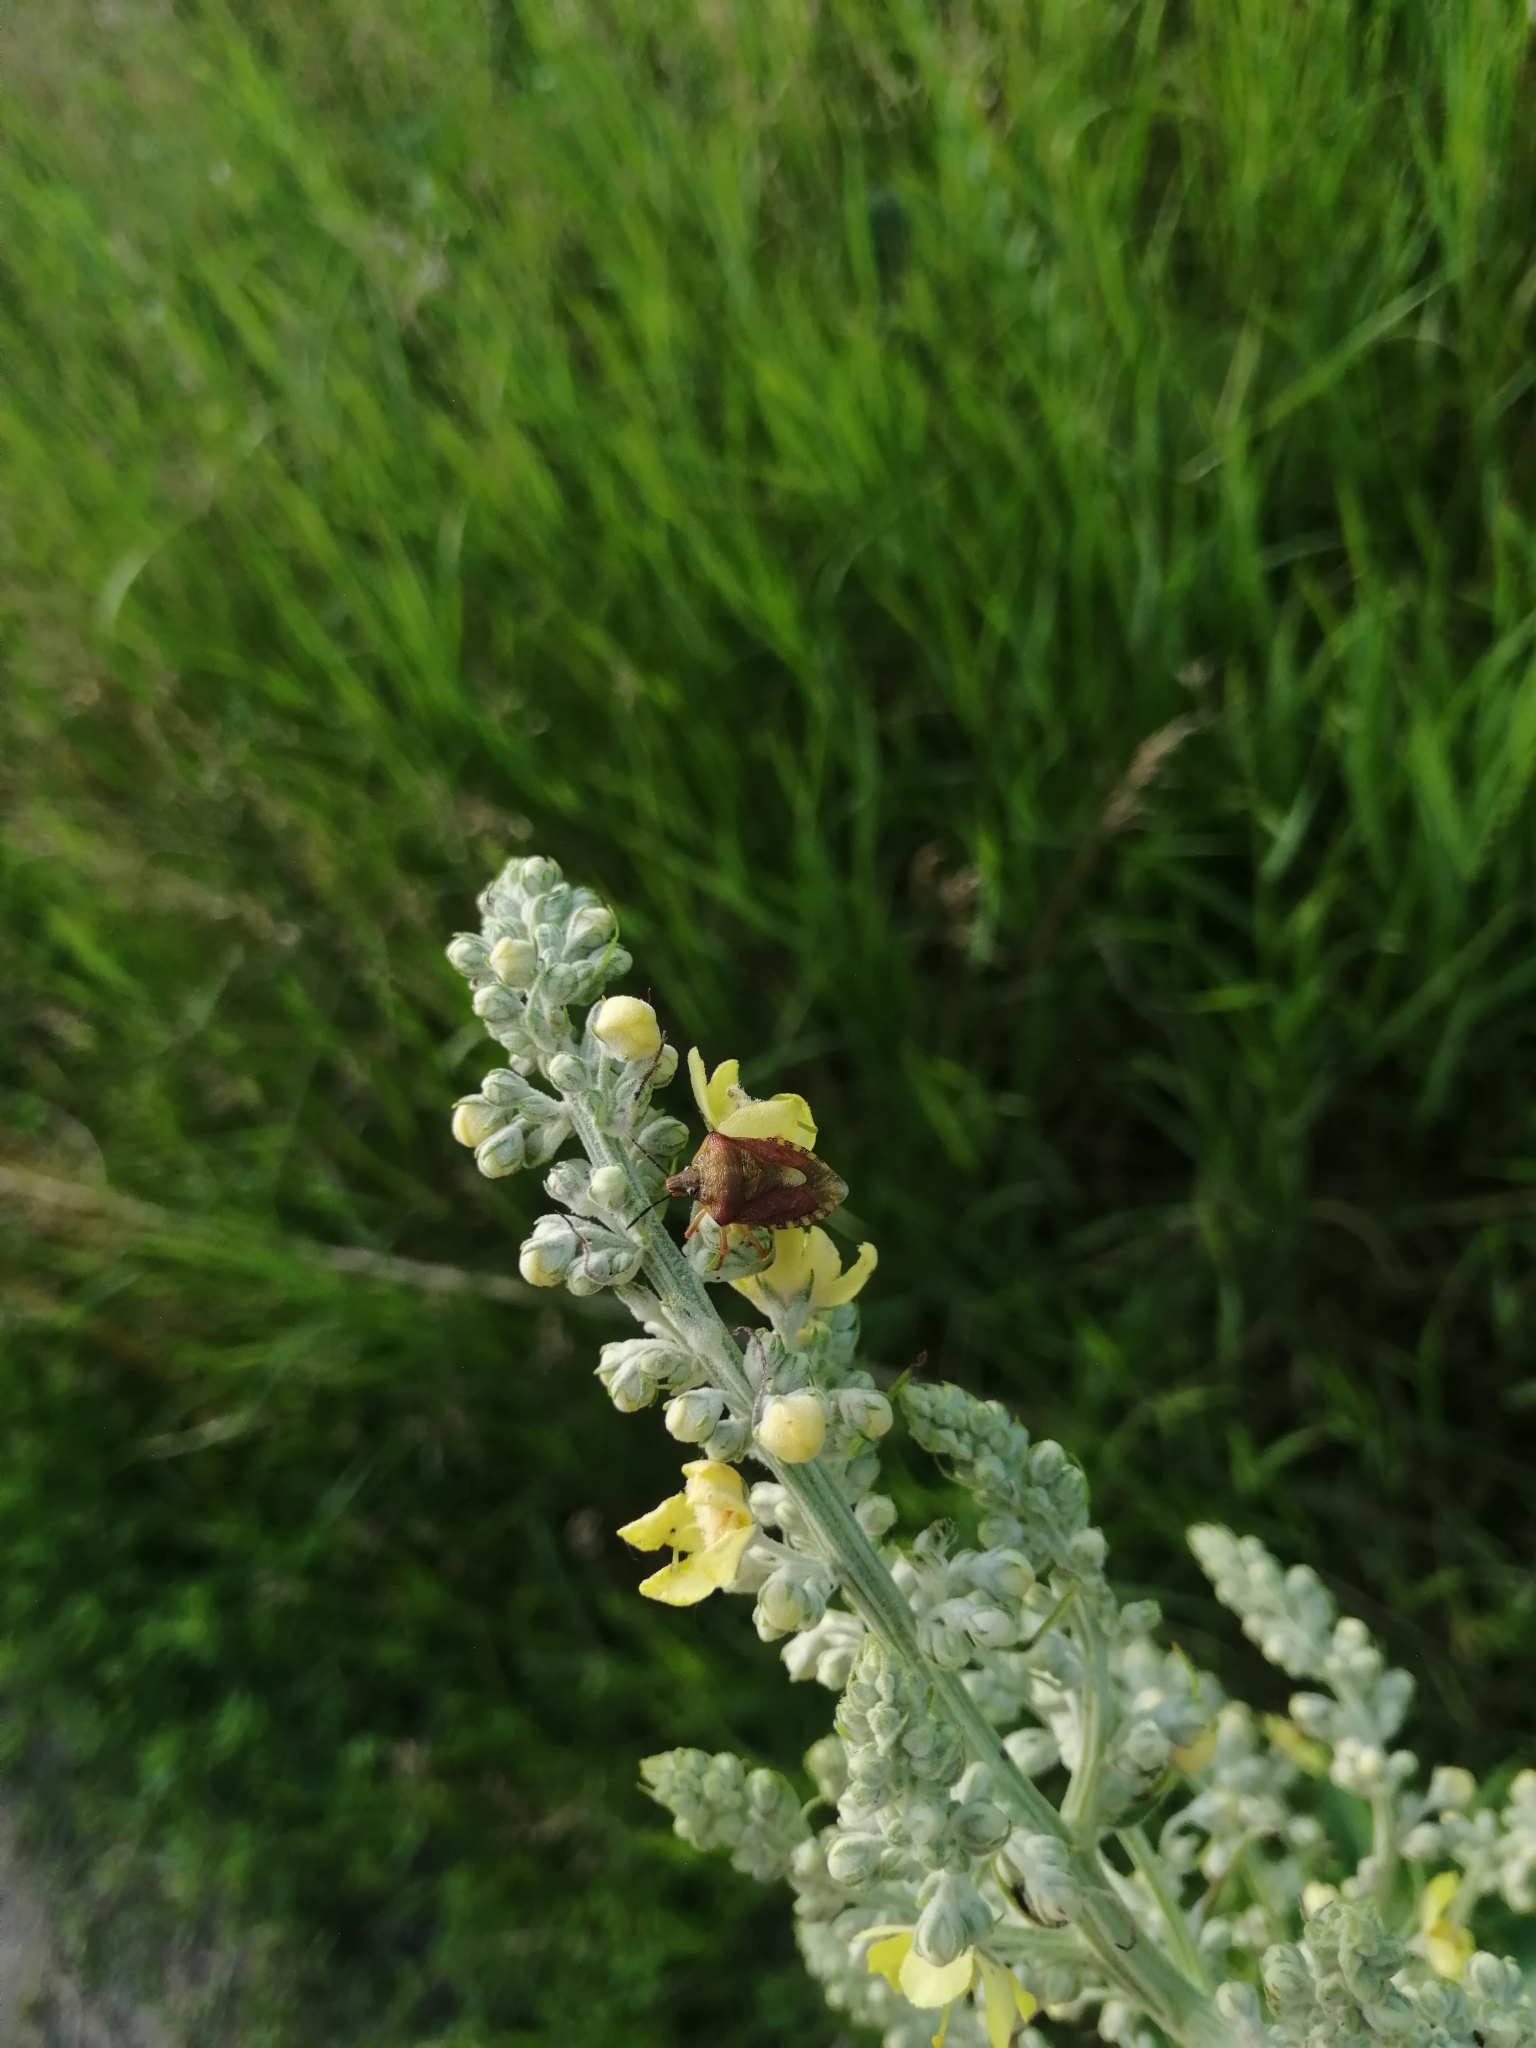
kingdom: Animalia
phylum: Arthropoda
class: Insecta
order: Hemiptera
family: Pentatomidae
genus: Carpocoris
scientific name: Carpocoris purpureipennis
